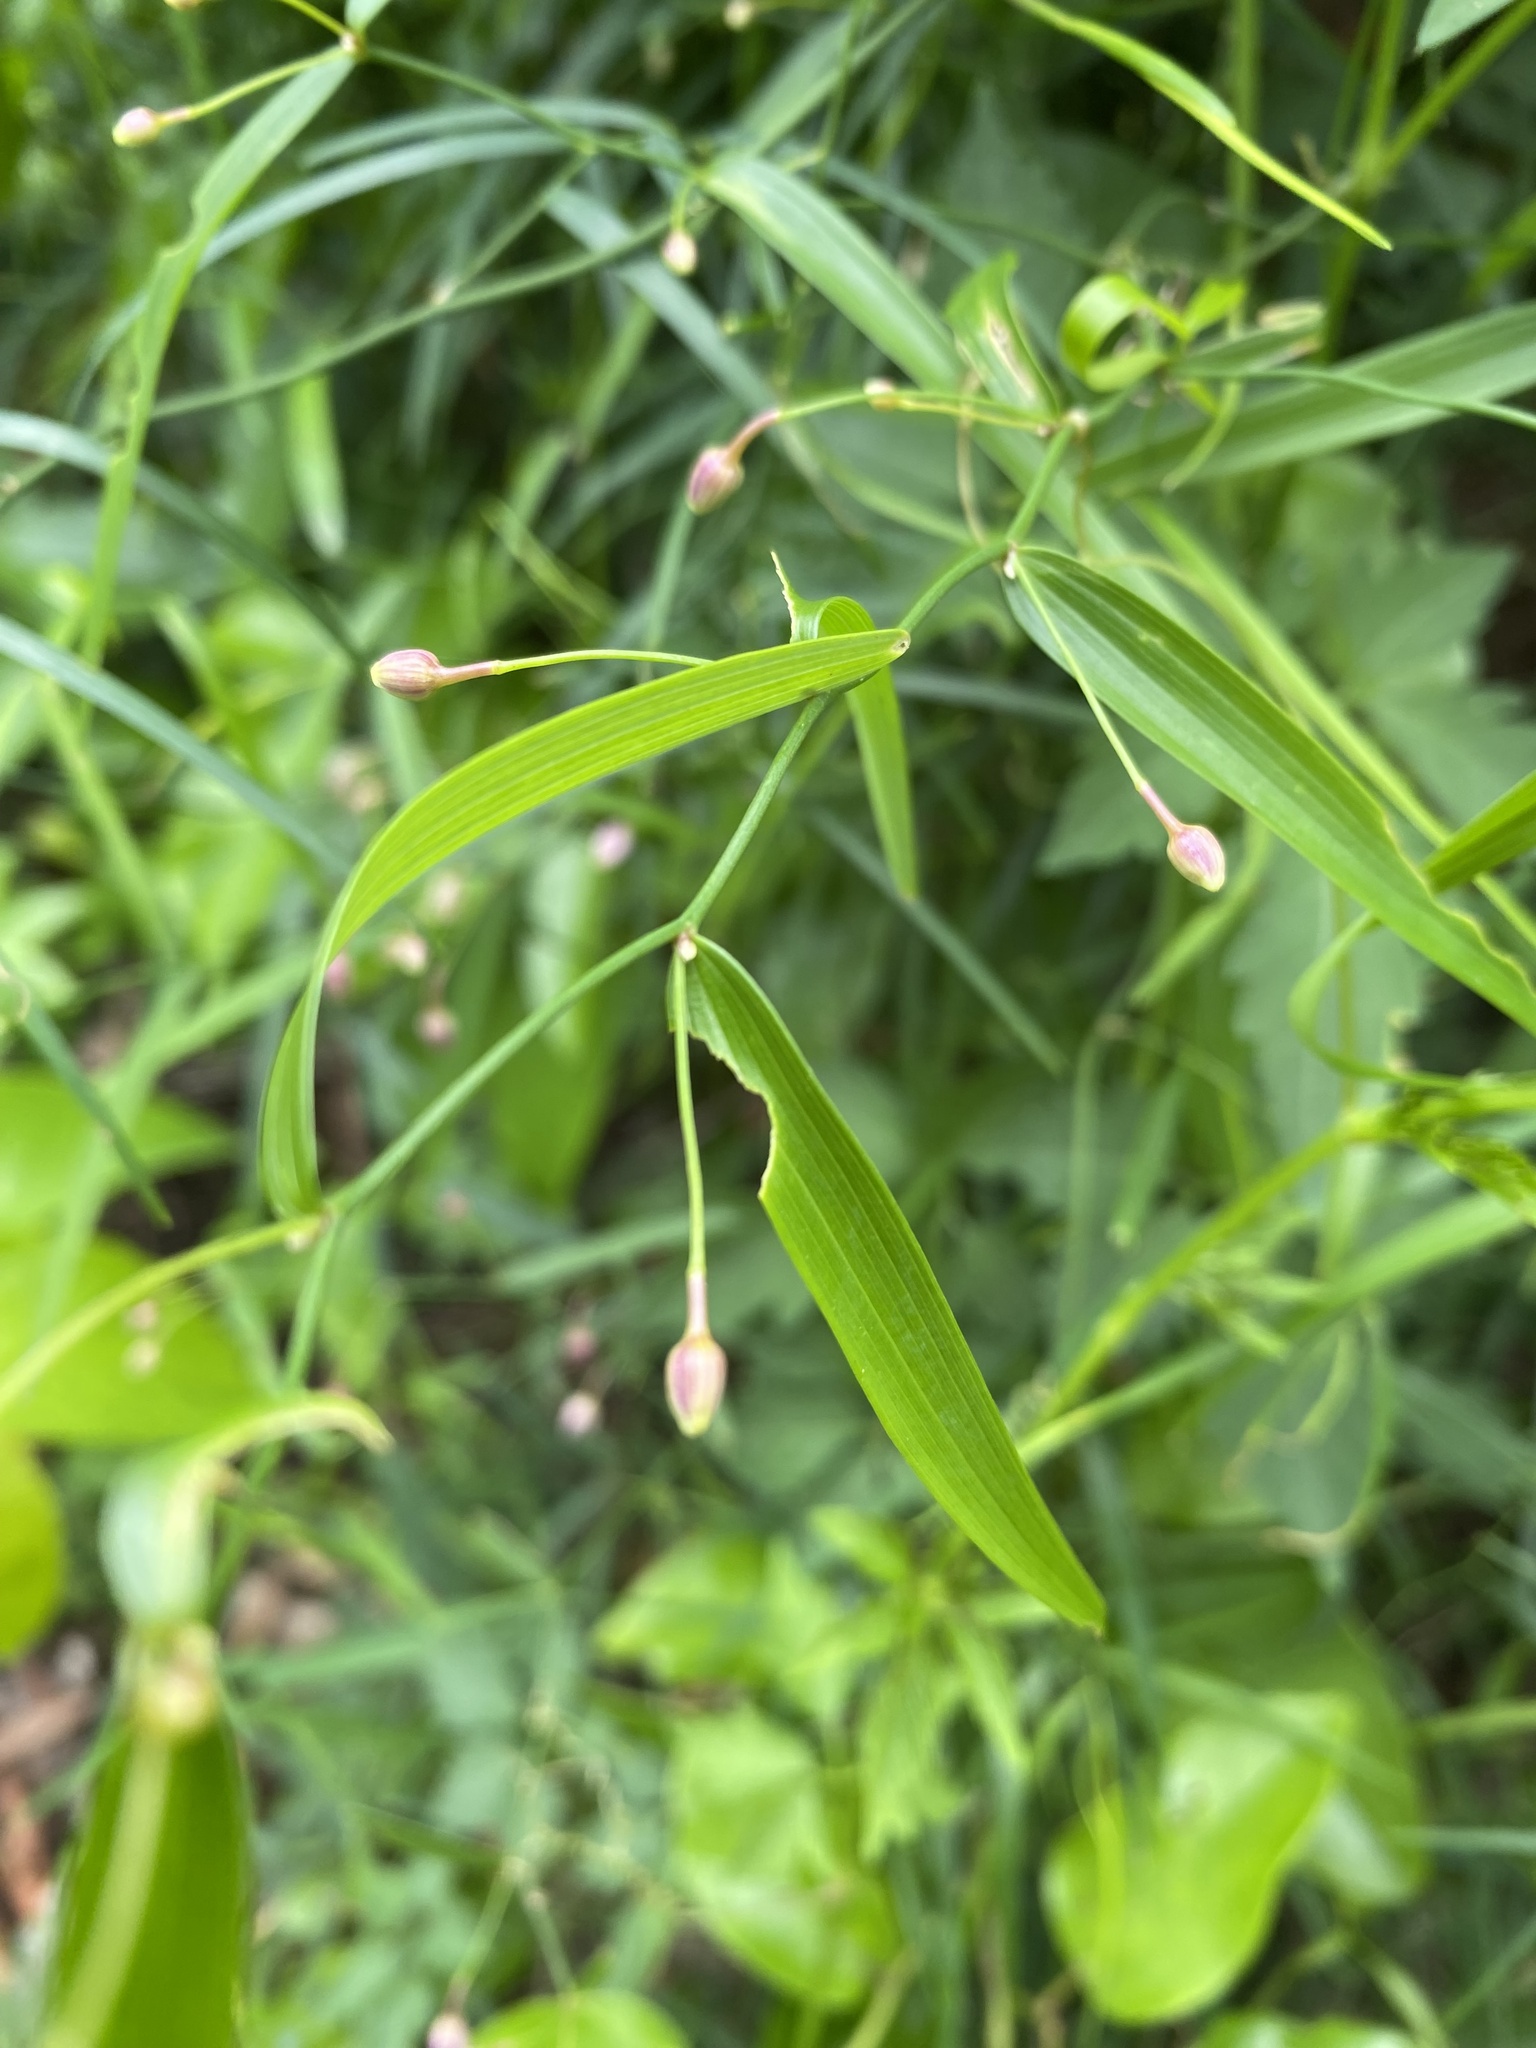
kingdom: Plantae
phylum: Tracheophyta
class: Liliopsida
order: Asparagales
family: Asparagaceae
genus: Eustrephus
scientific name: Eustrephus latifolius
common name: Orangevine
